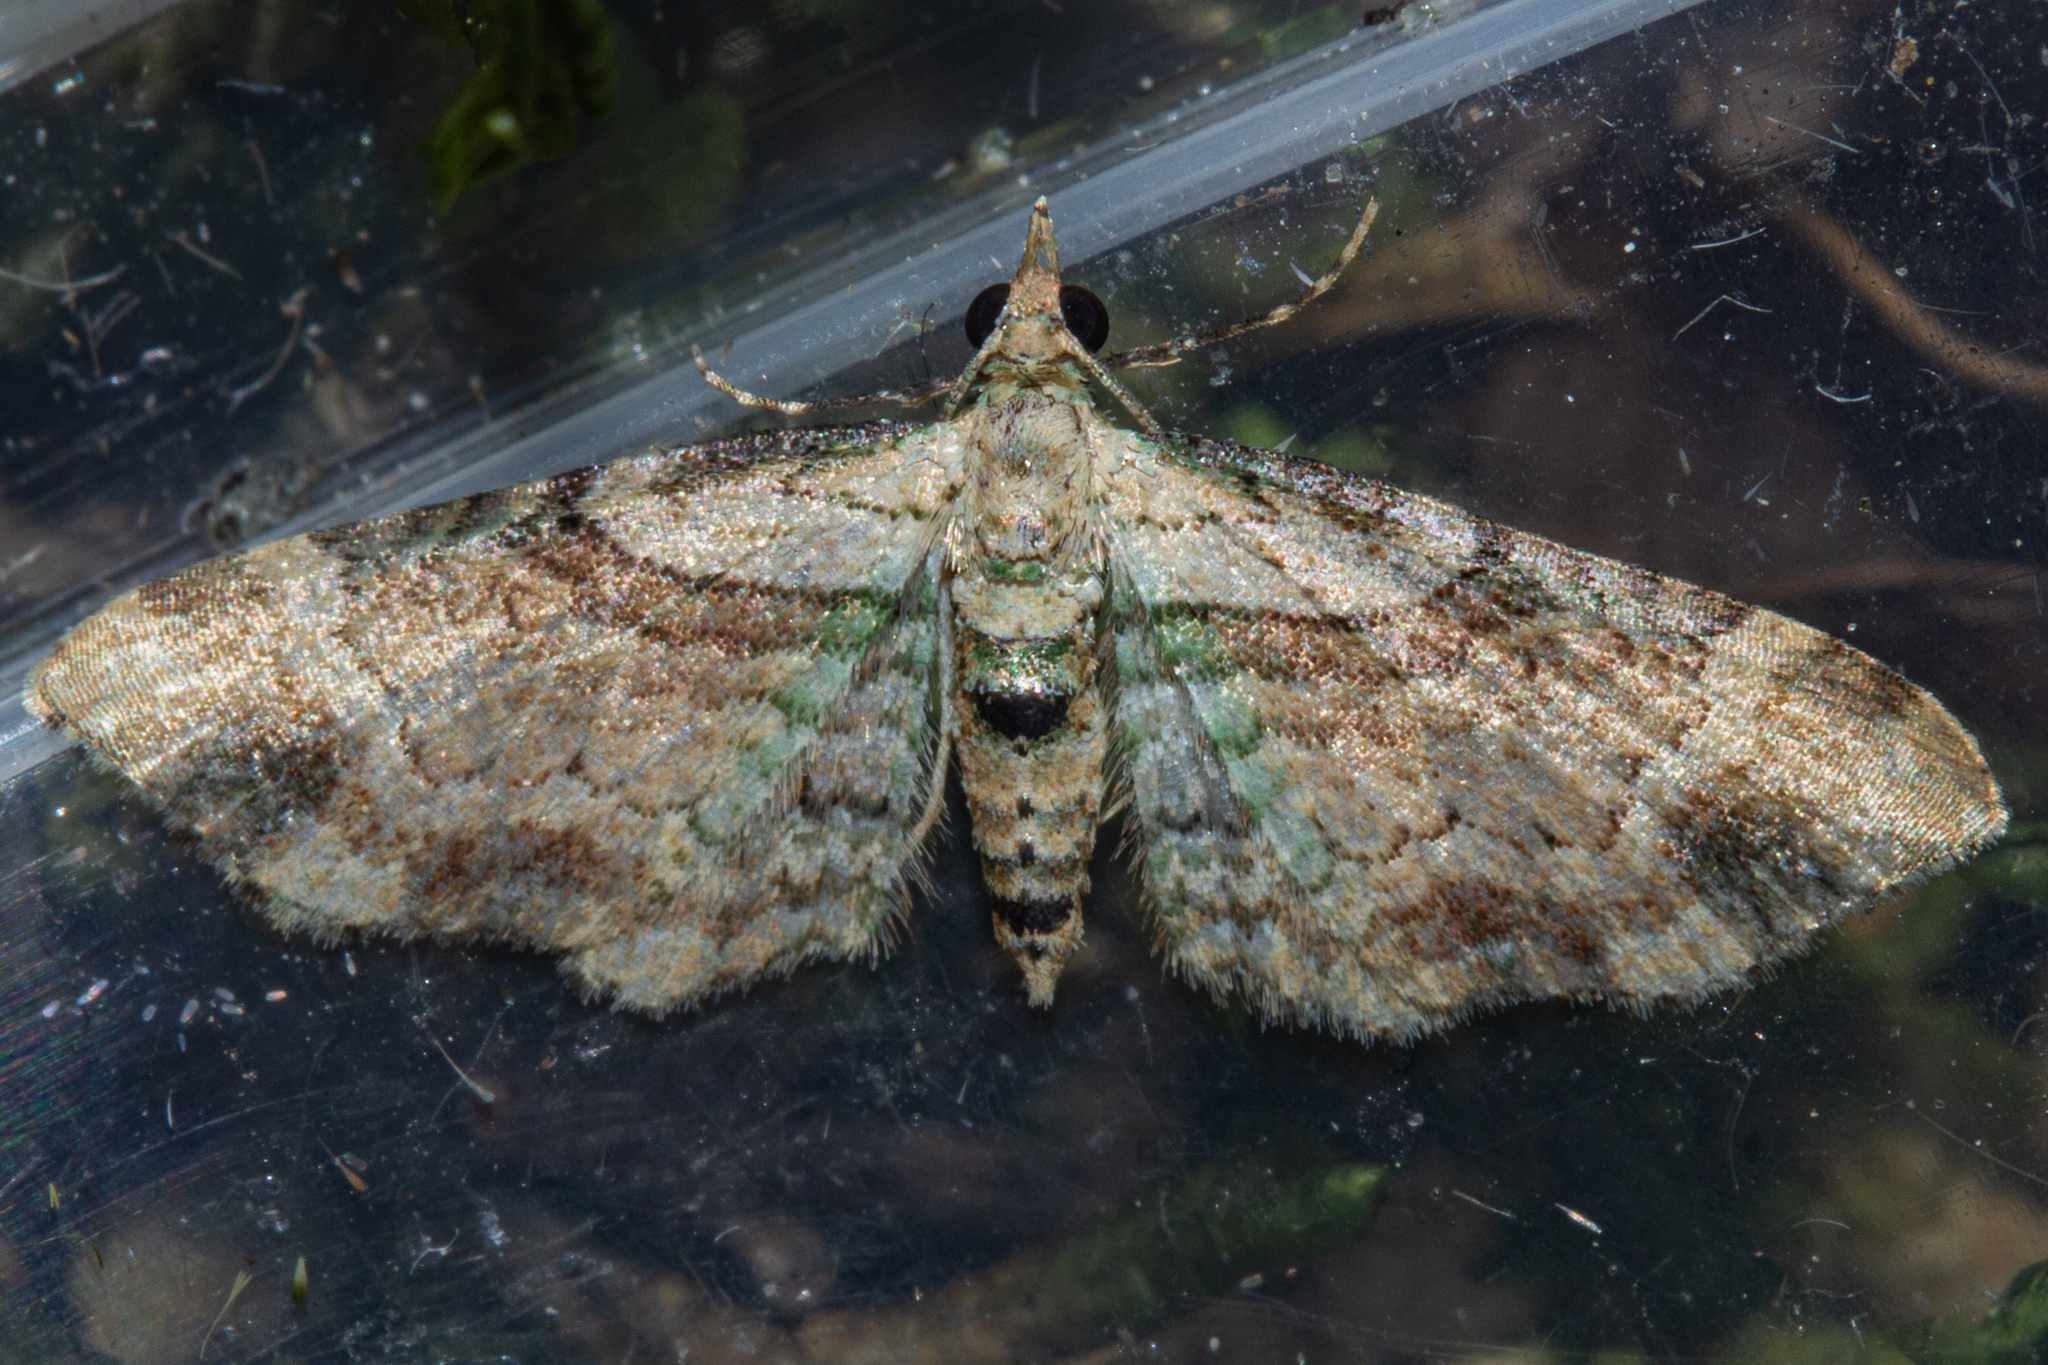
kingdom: Animalia
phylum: Arthropoda
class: Insecta
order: Lepidoptera
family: Geometridae
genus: Chloroclystis
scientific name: Chloroclystis
